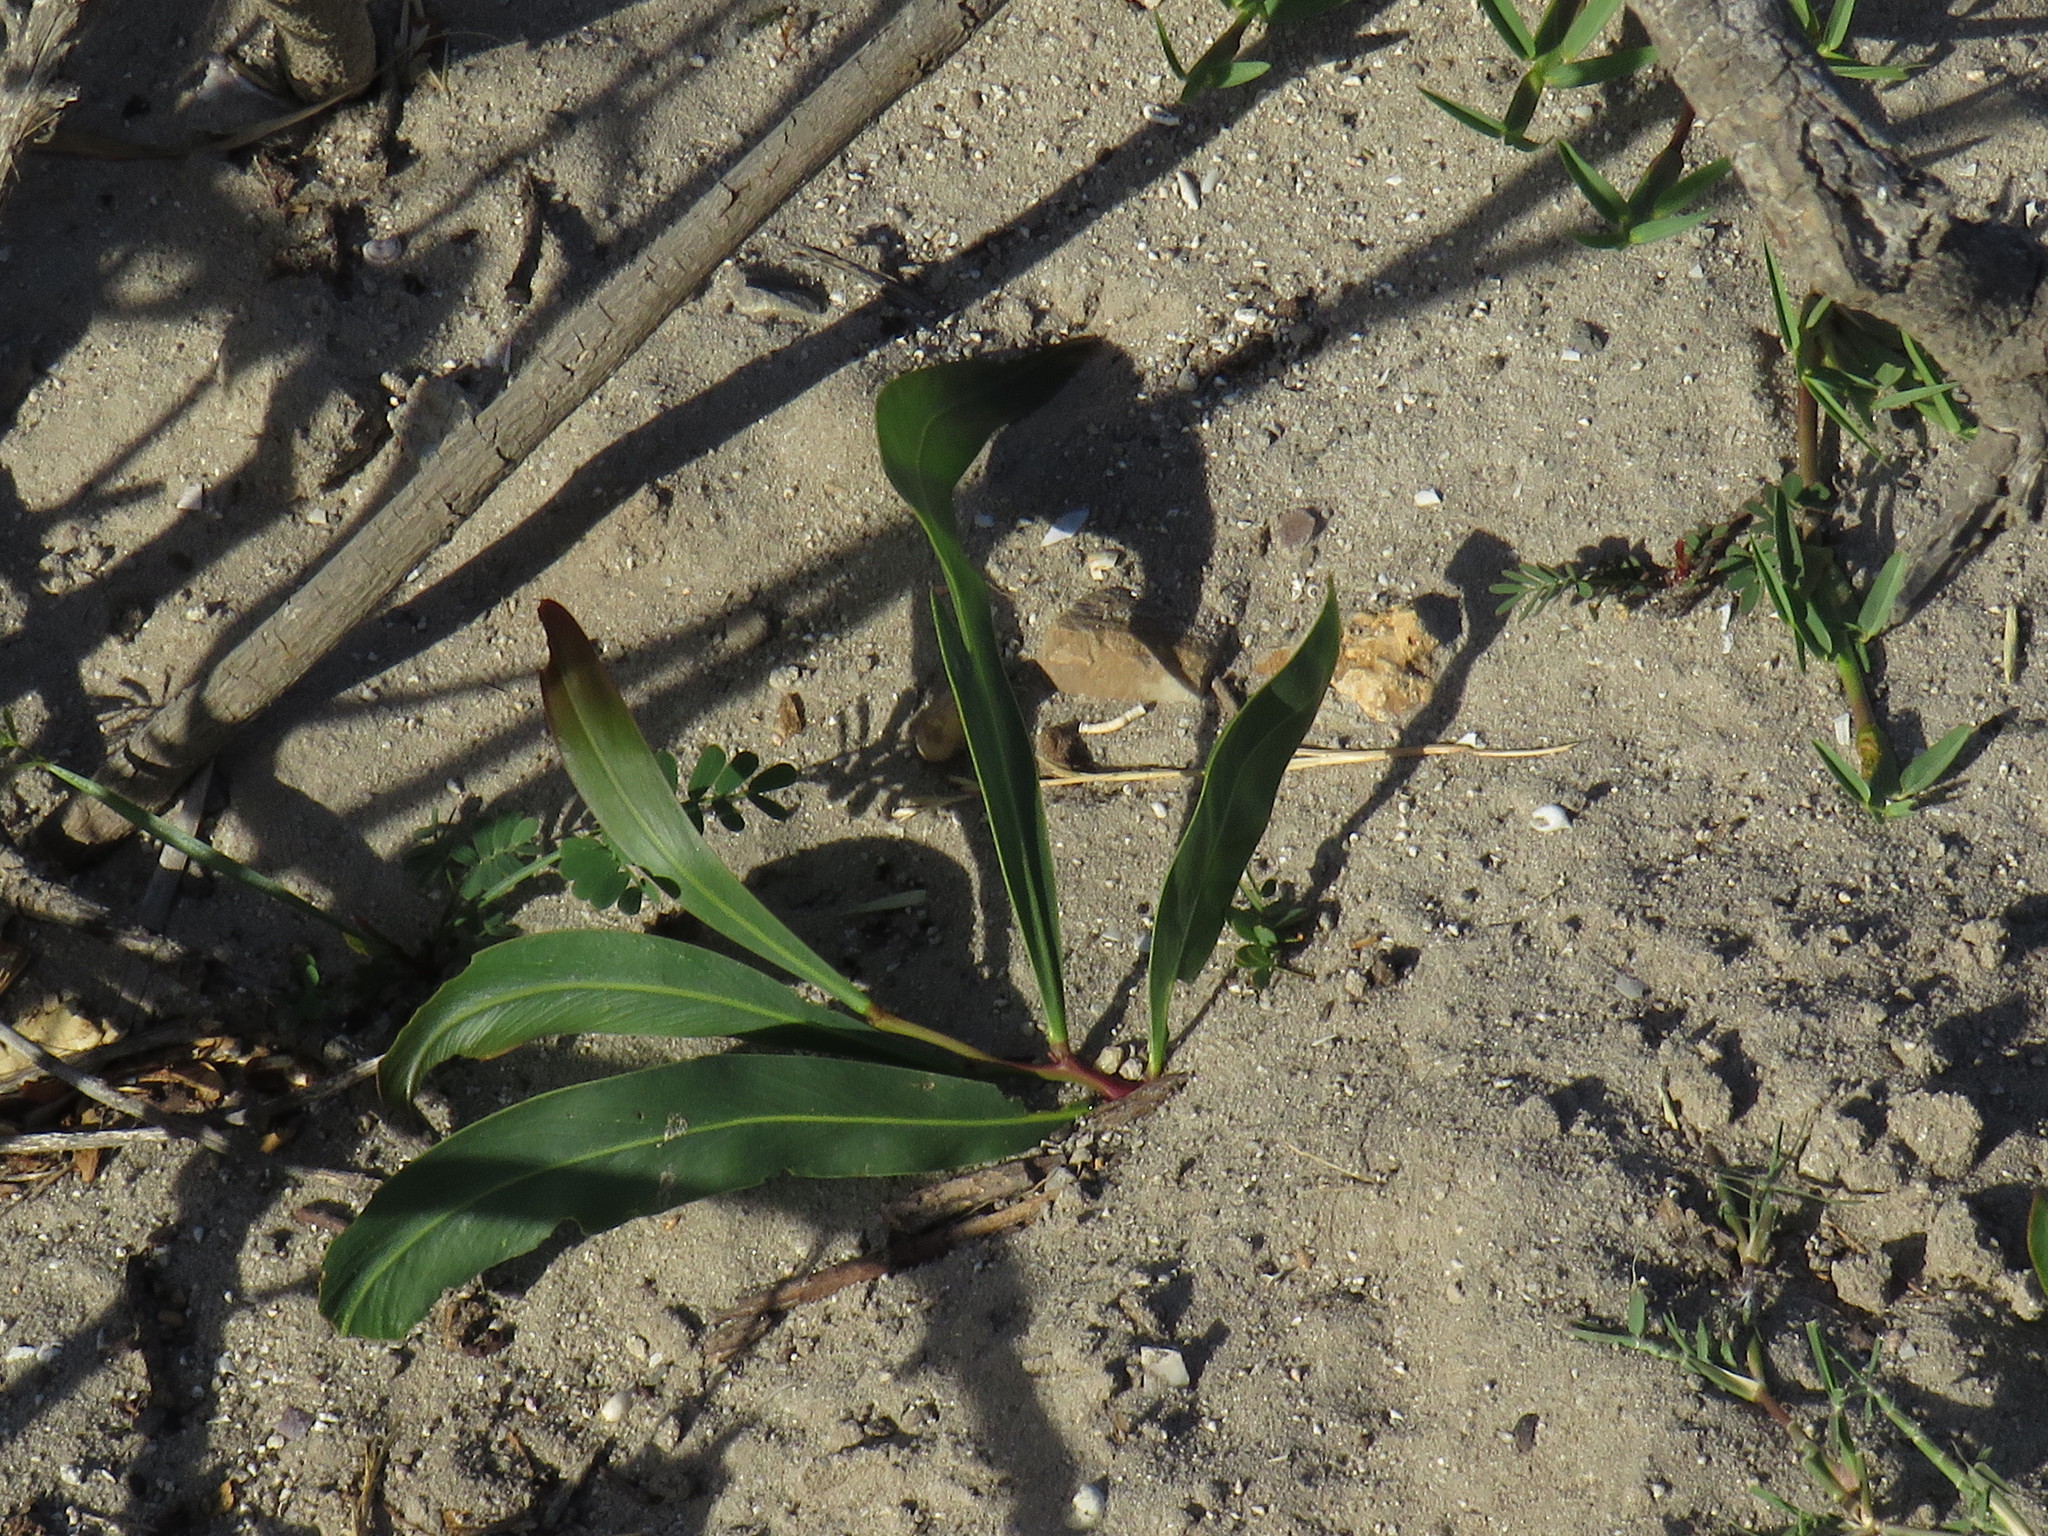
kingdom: Plantae
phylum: Tracheophyta
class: Magnoliopsida
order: Fabales
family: Fabaceae
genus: Acacia
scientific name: Acacia saligna
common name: Orange wattle
